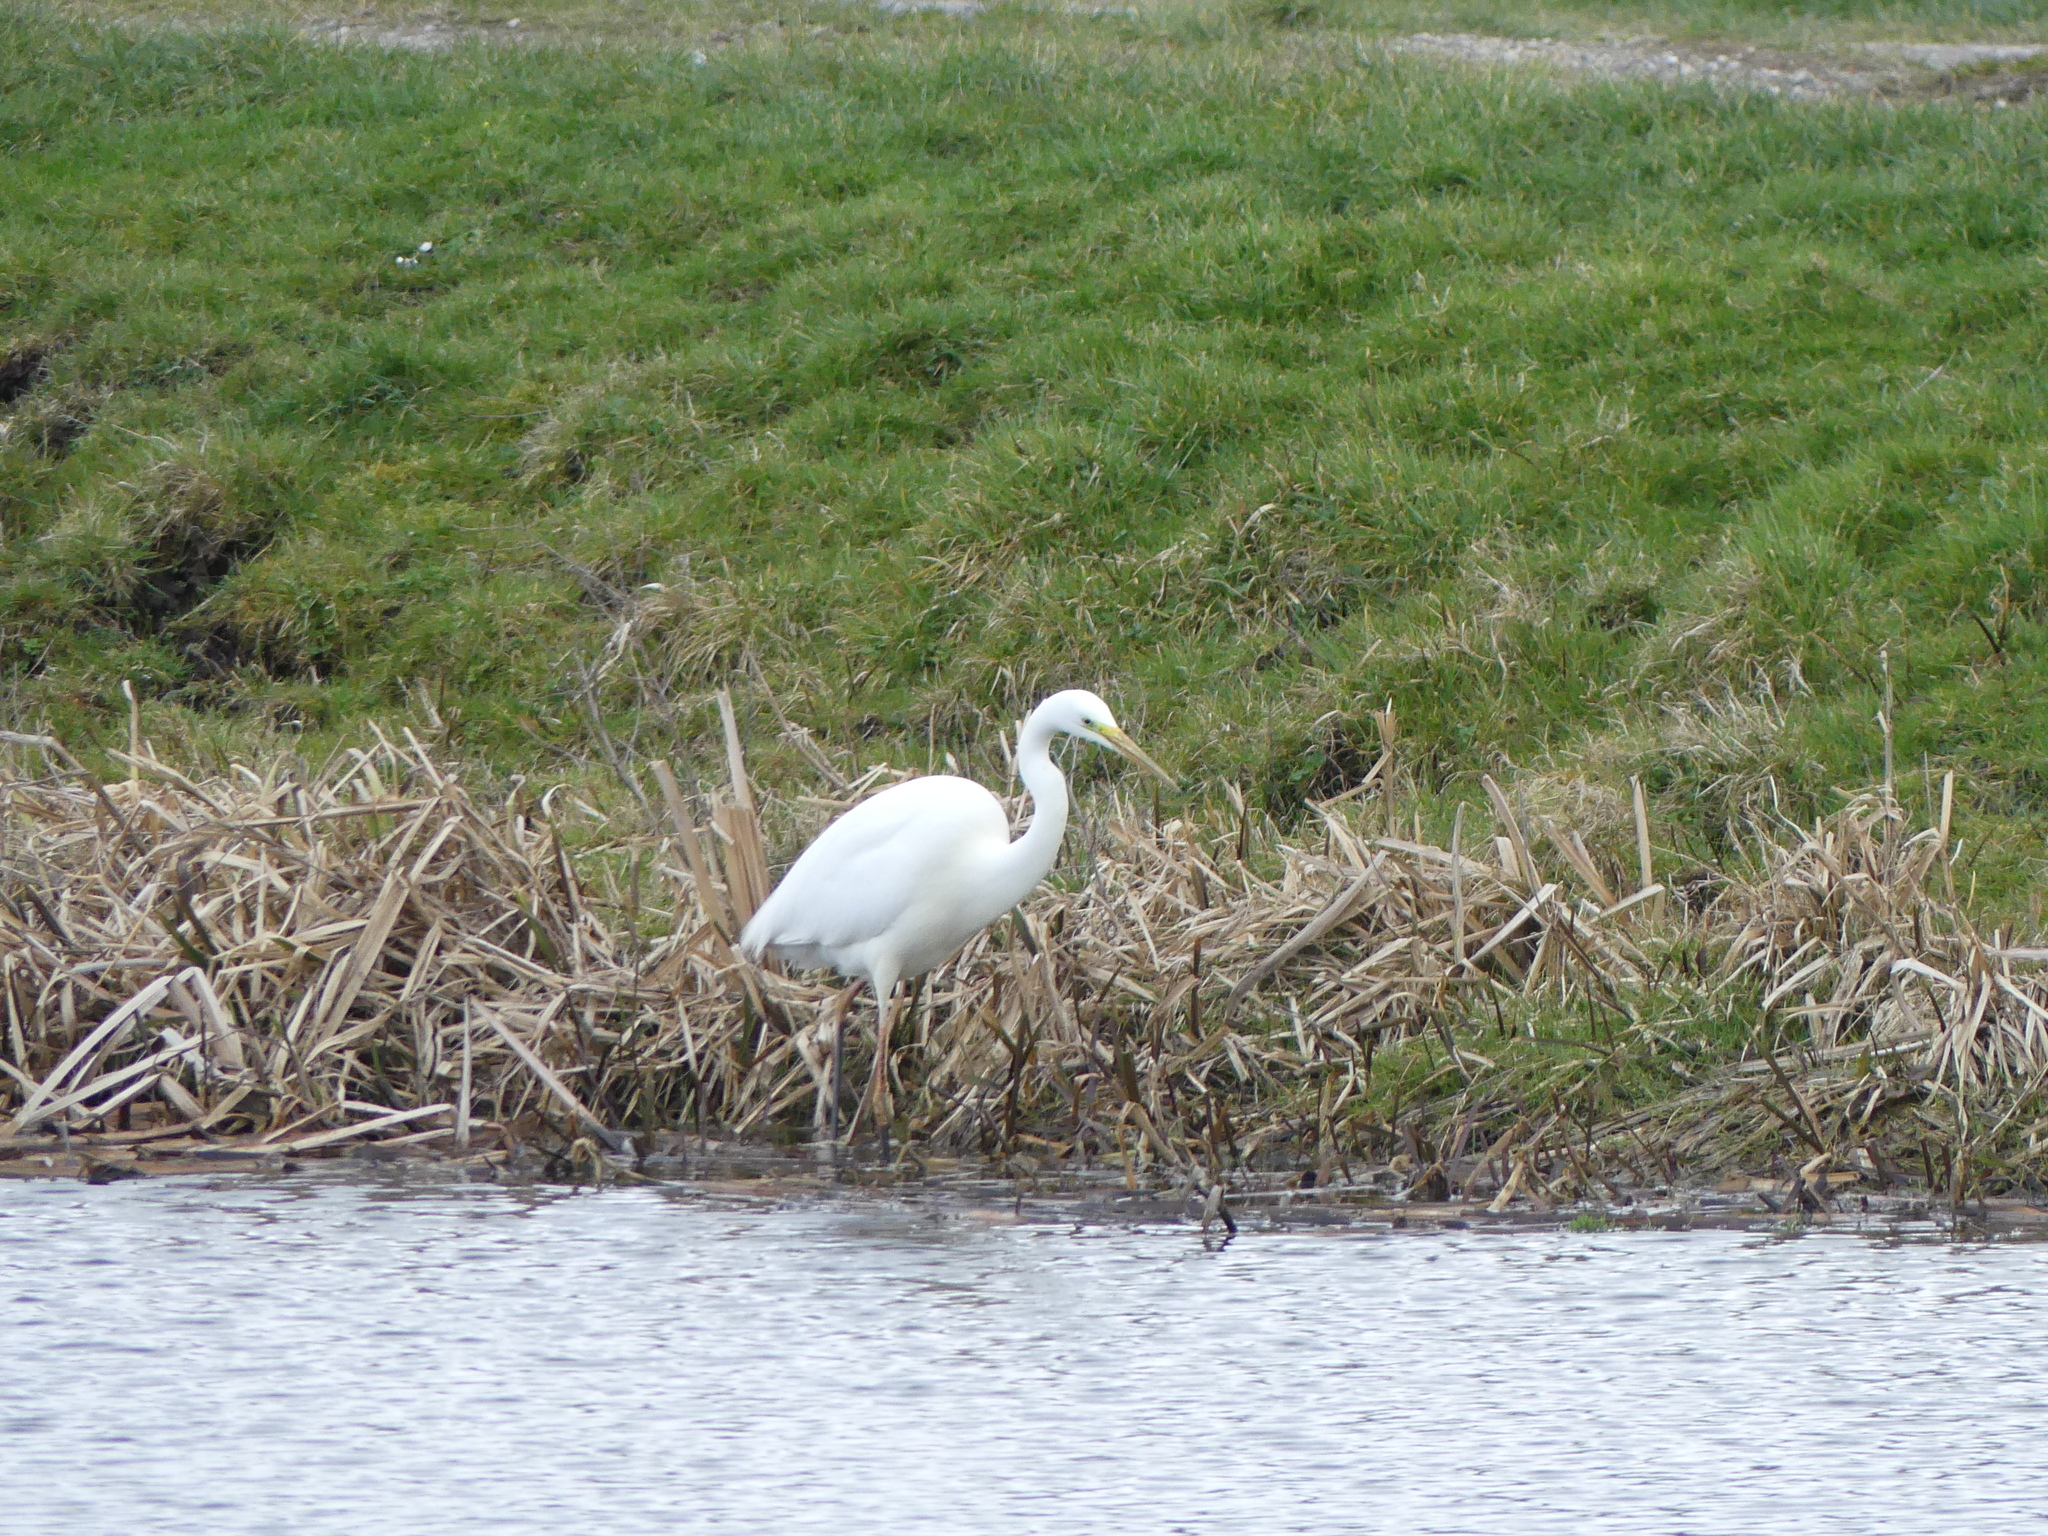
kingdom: Animalia
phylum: Chordata
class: Aves
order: Pelecaniformes
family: Ardeidae
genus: Ardea
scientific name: Ardea alba
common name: Great egret
